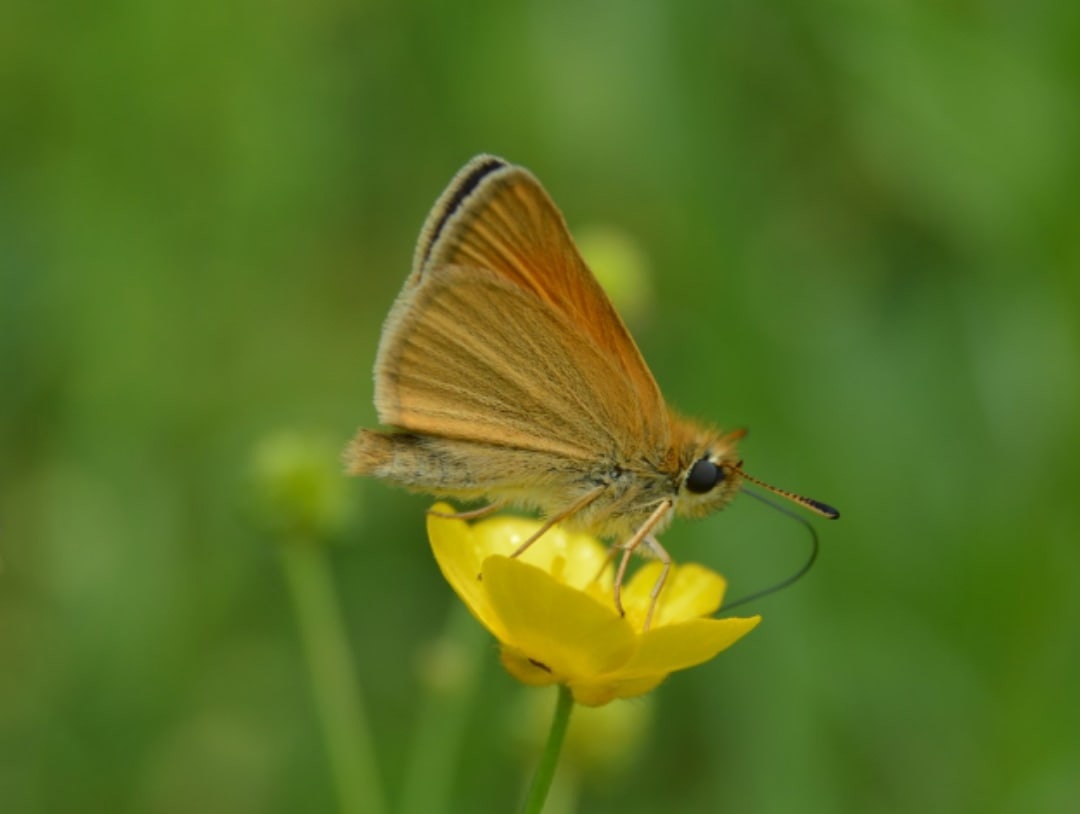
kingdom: Animalia
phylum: Arthropoda
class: Insecta
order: Lepidoptera
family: Hesperiidae
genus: Thymelicus
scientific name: Thymelicus lineola
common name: Essex skipper
